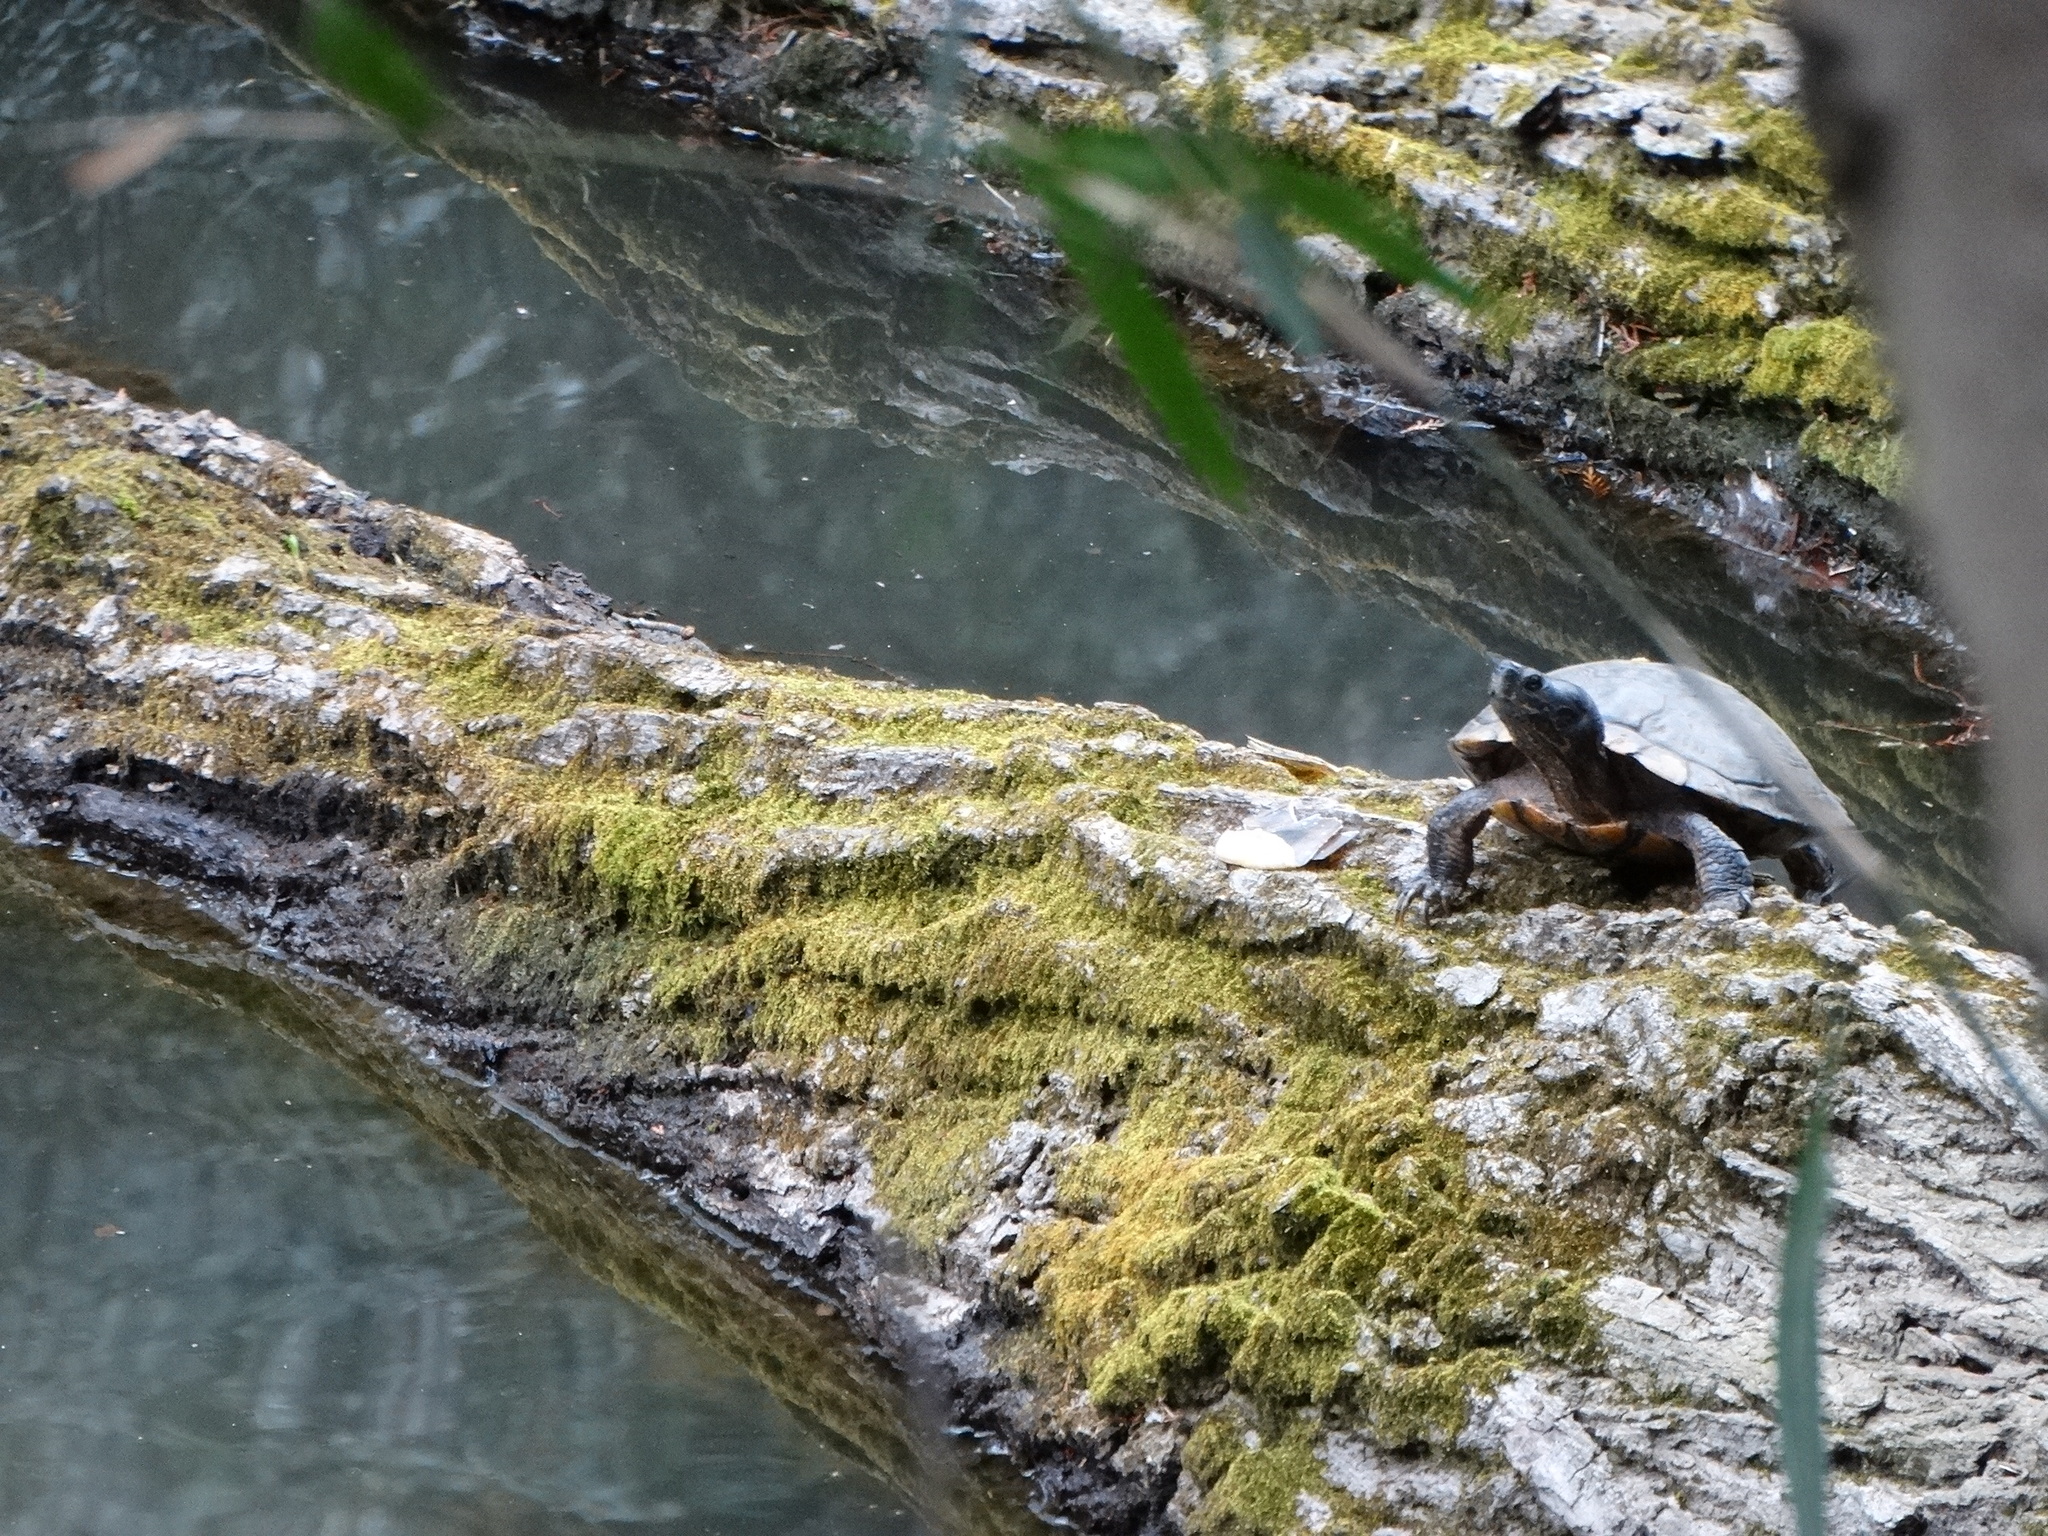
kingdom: Animalia
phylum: Chordata
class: Testudines
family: Emydidae
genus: Trachemys
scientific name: Trachemys scripta
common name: Slider
